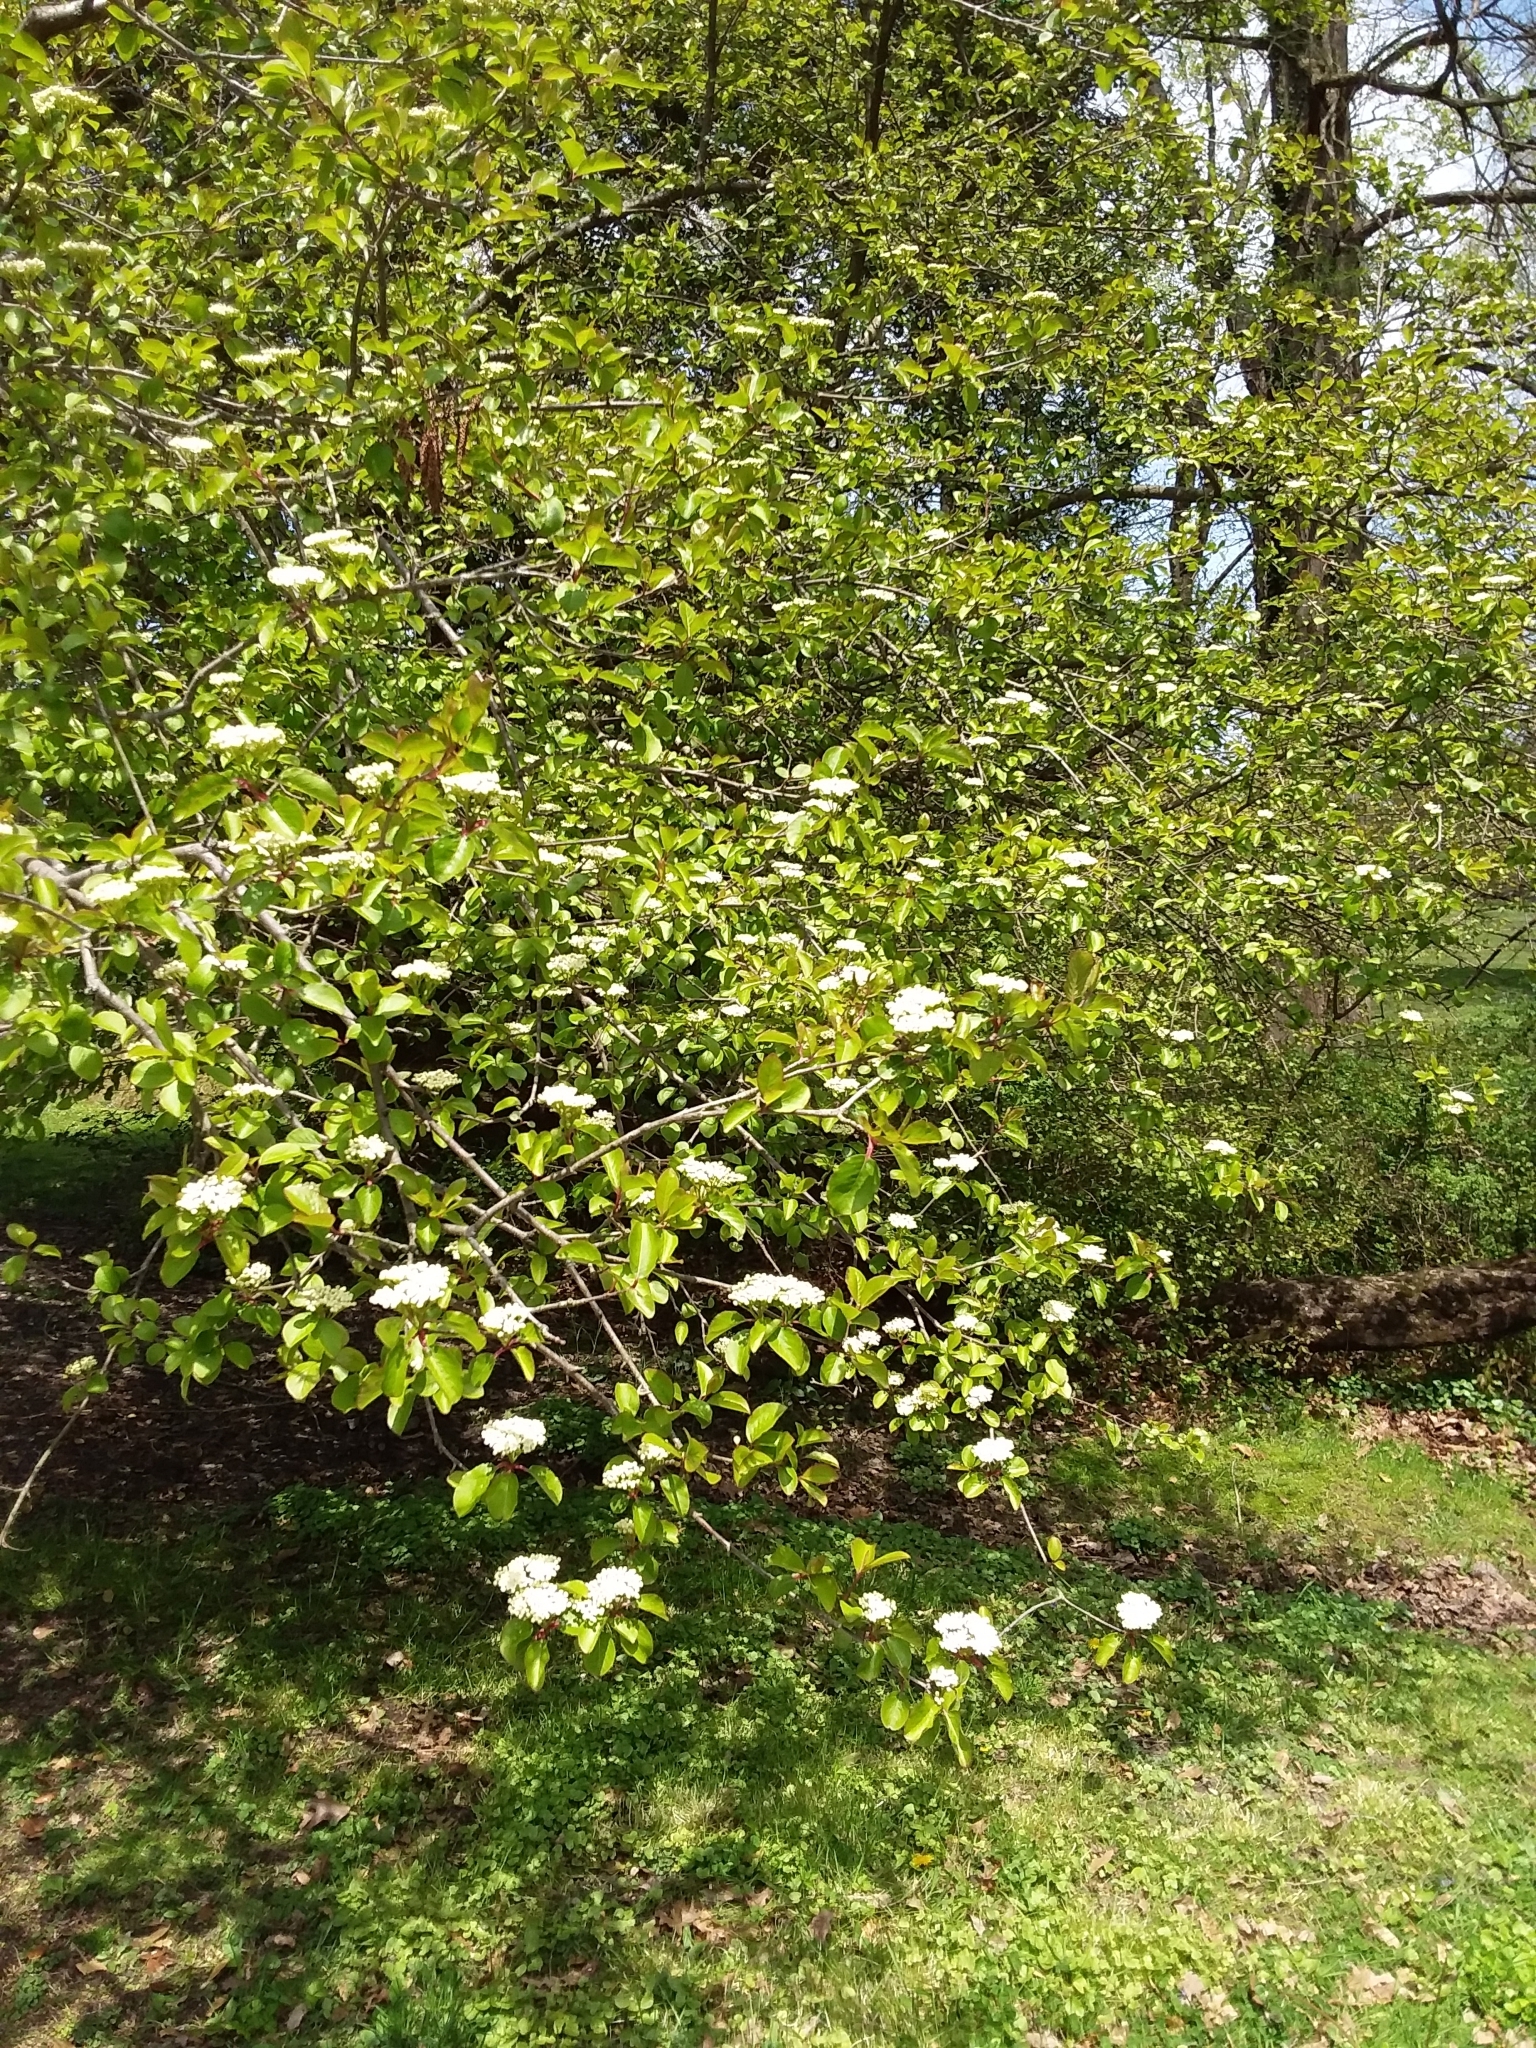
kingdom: Plantae
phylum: Tracheophyta
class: Magnoliopsida
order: Dipsacales
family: Viburnaceae
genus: Viburnum
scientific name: Viburnum prunifolium
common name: Black haw
